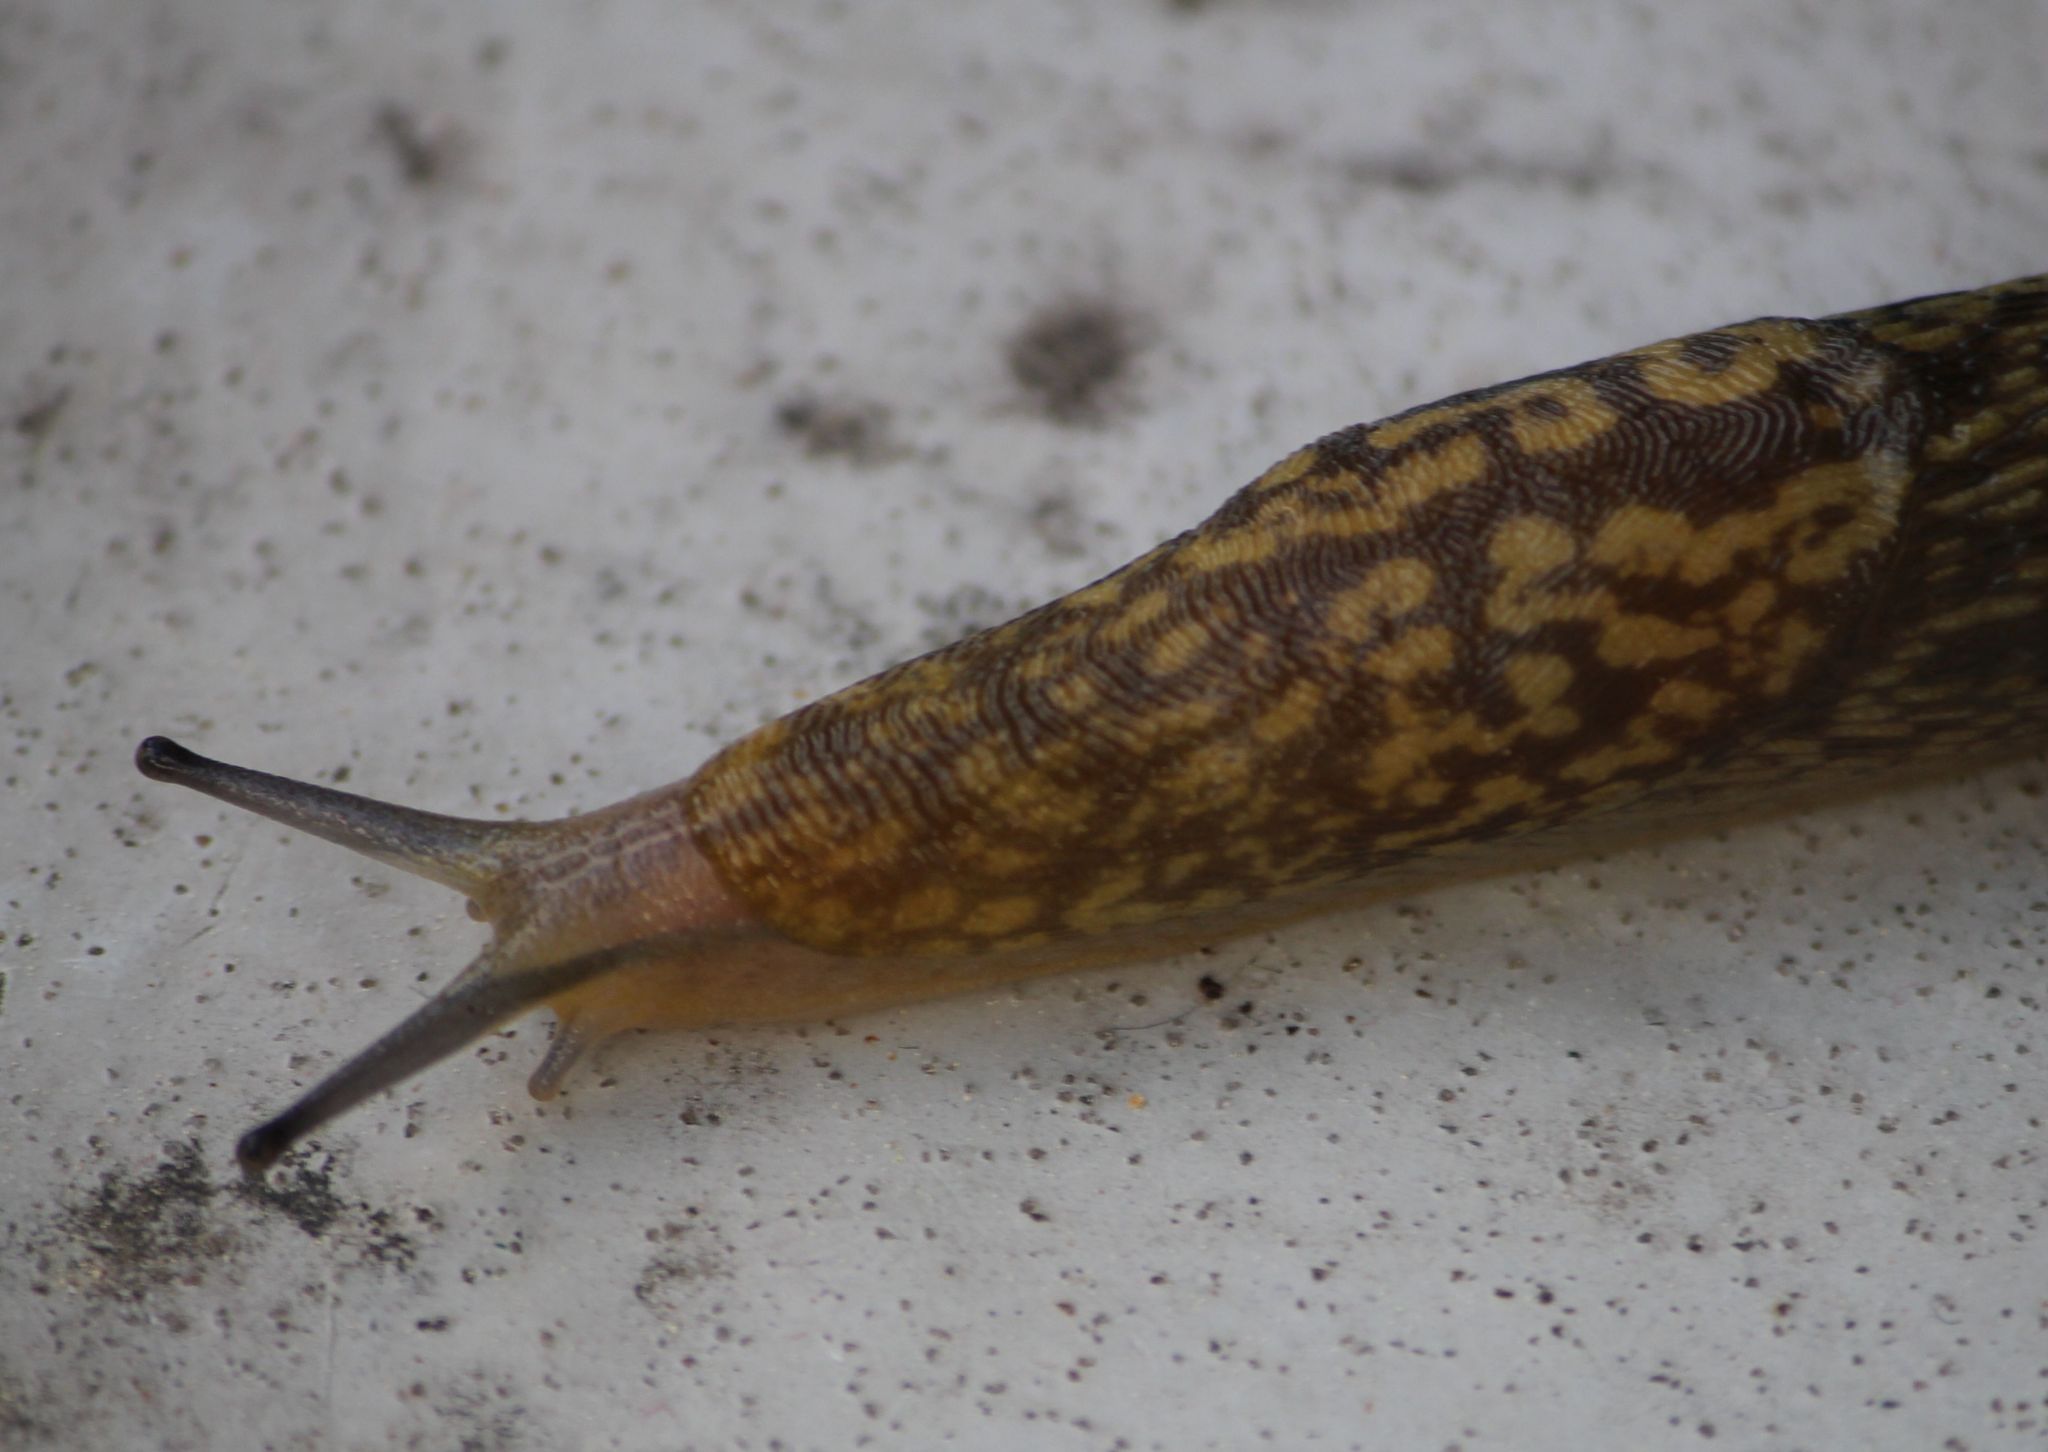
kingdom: Animalia
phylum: Mollusca
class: Gastropoda
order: Stylommatophora
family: Limacidae
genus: Limacus
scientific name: Limacus maculatus
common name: Irish yellow slug
